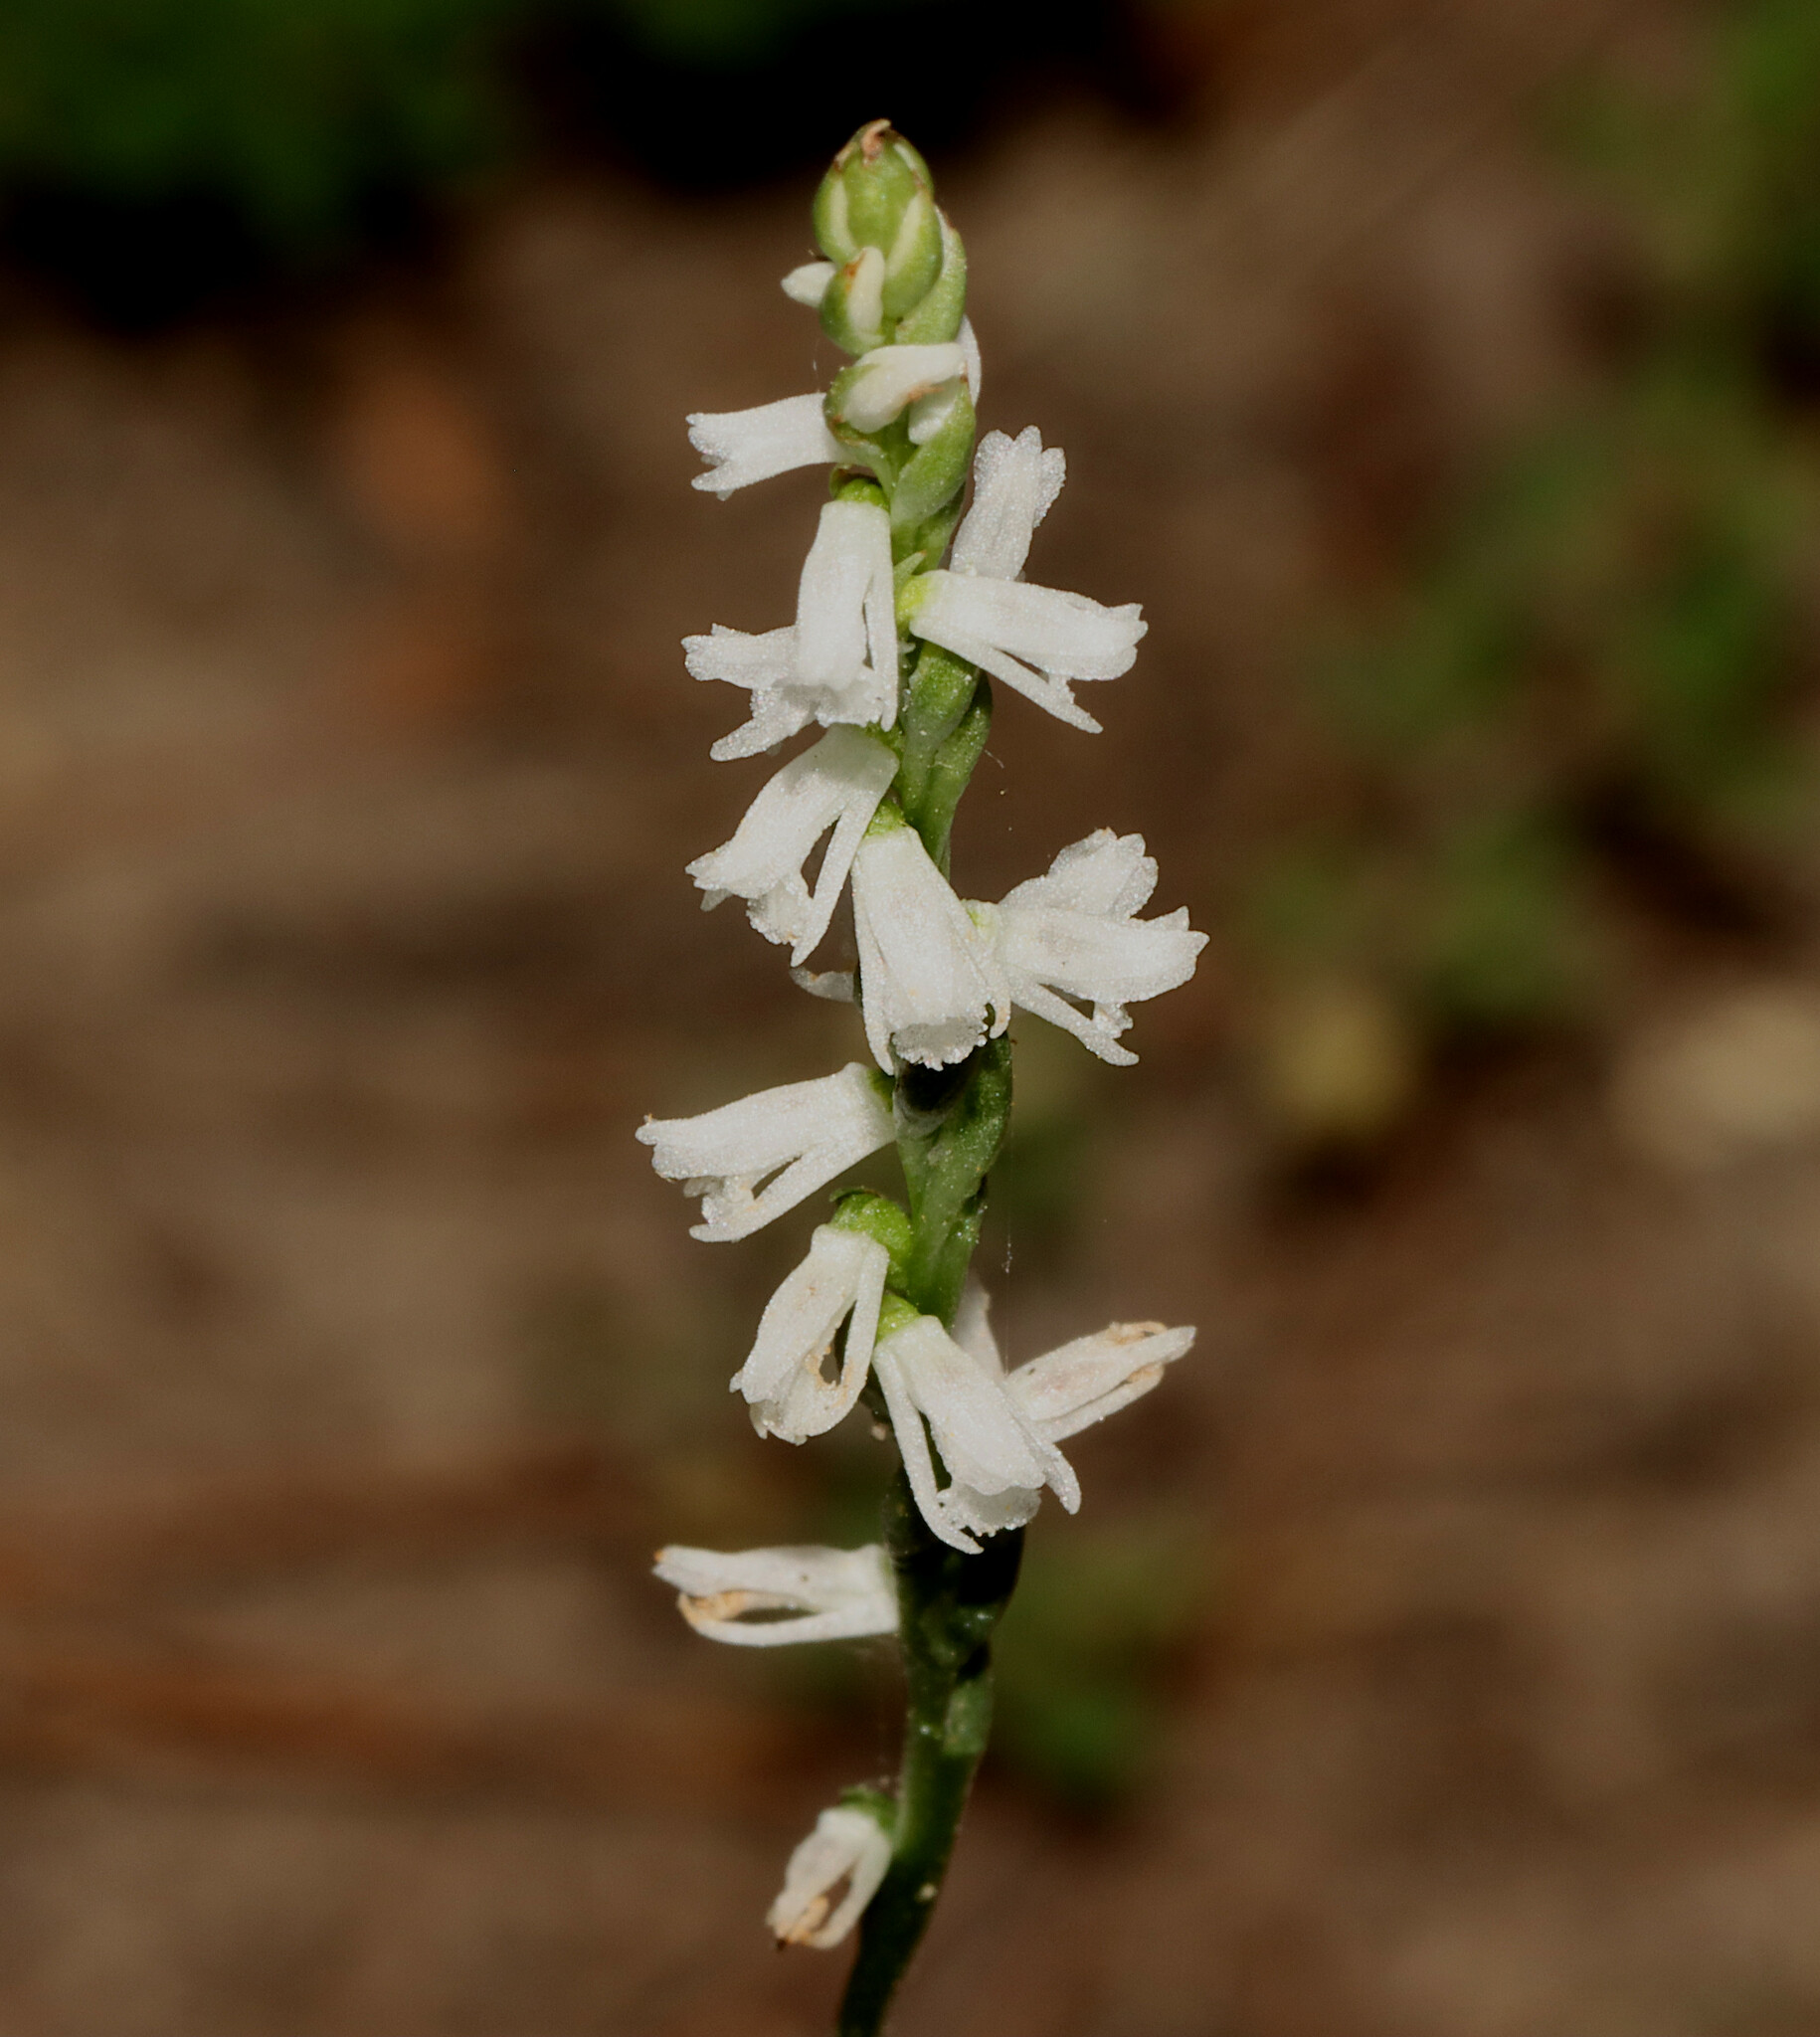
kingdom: Plantae
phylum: Tracheophyta
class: Liliopsida
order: Asparagales
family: Orchidaceae
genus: Spiranthes
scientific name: Spiranthes tuberosa
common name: Little ladies'-tresses
